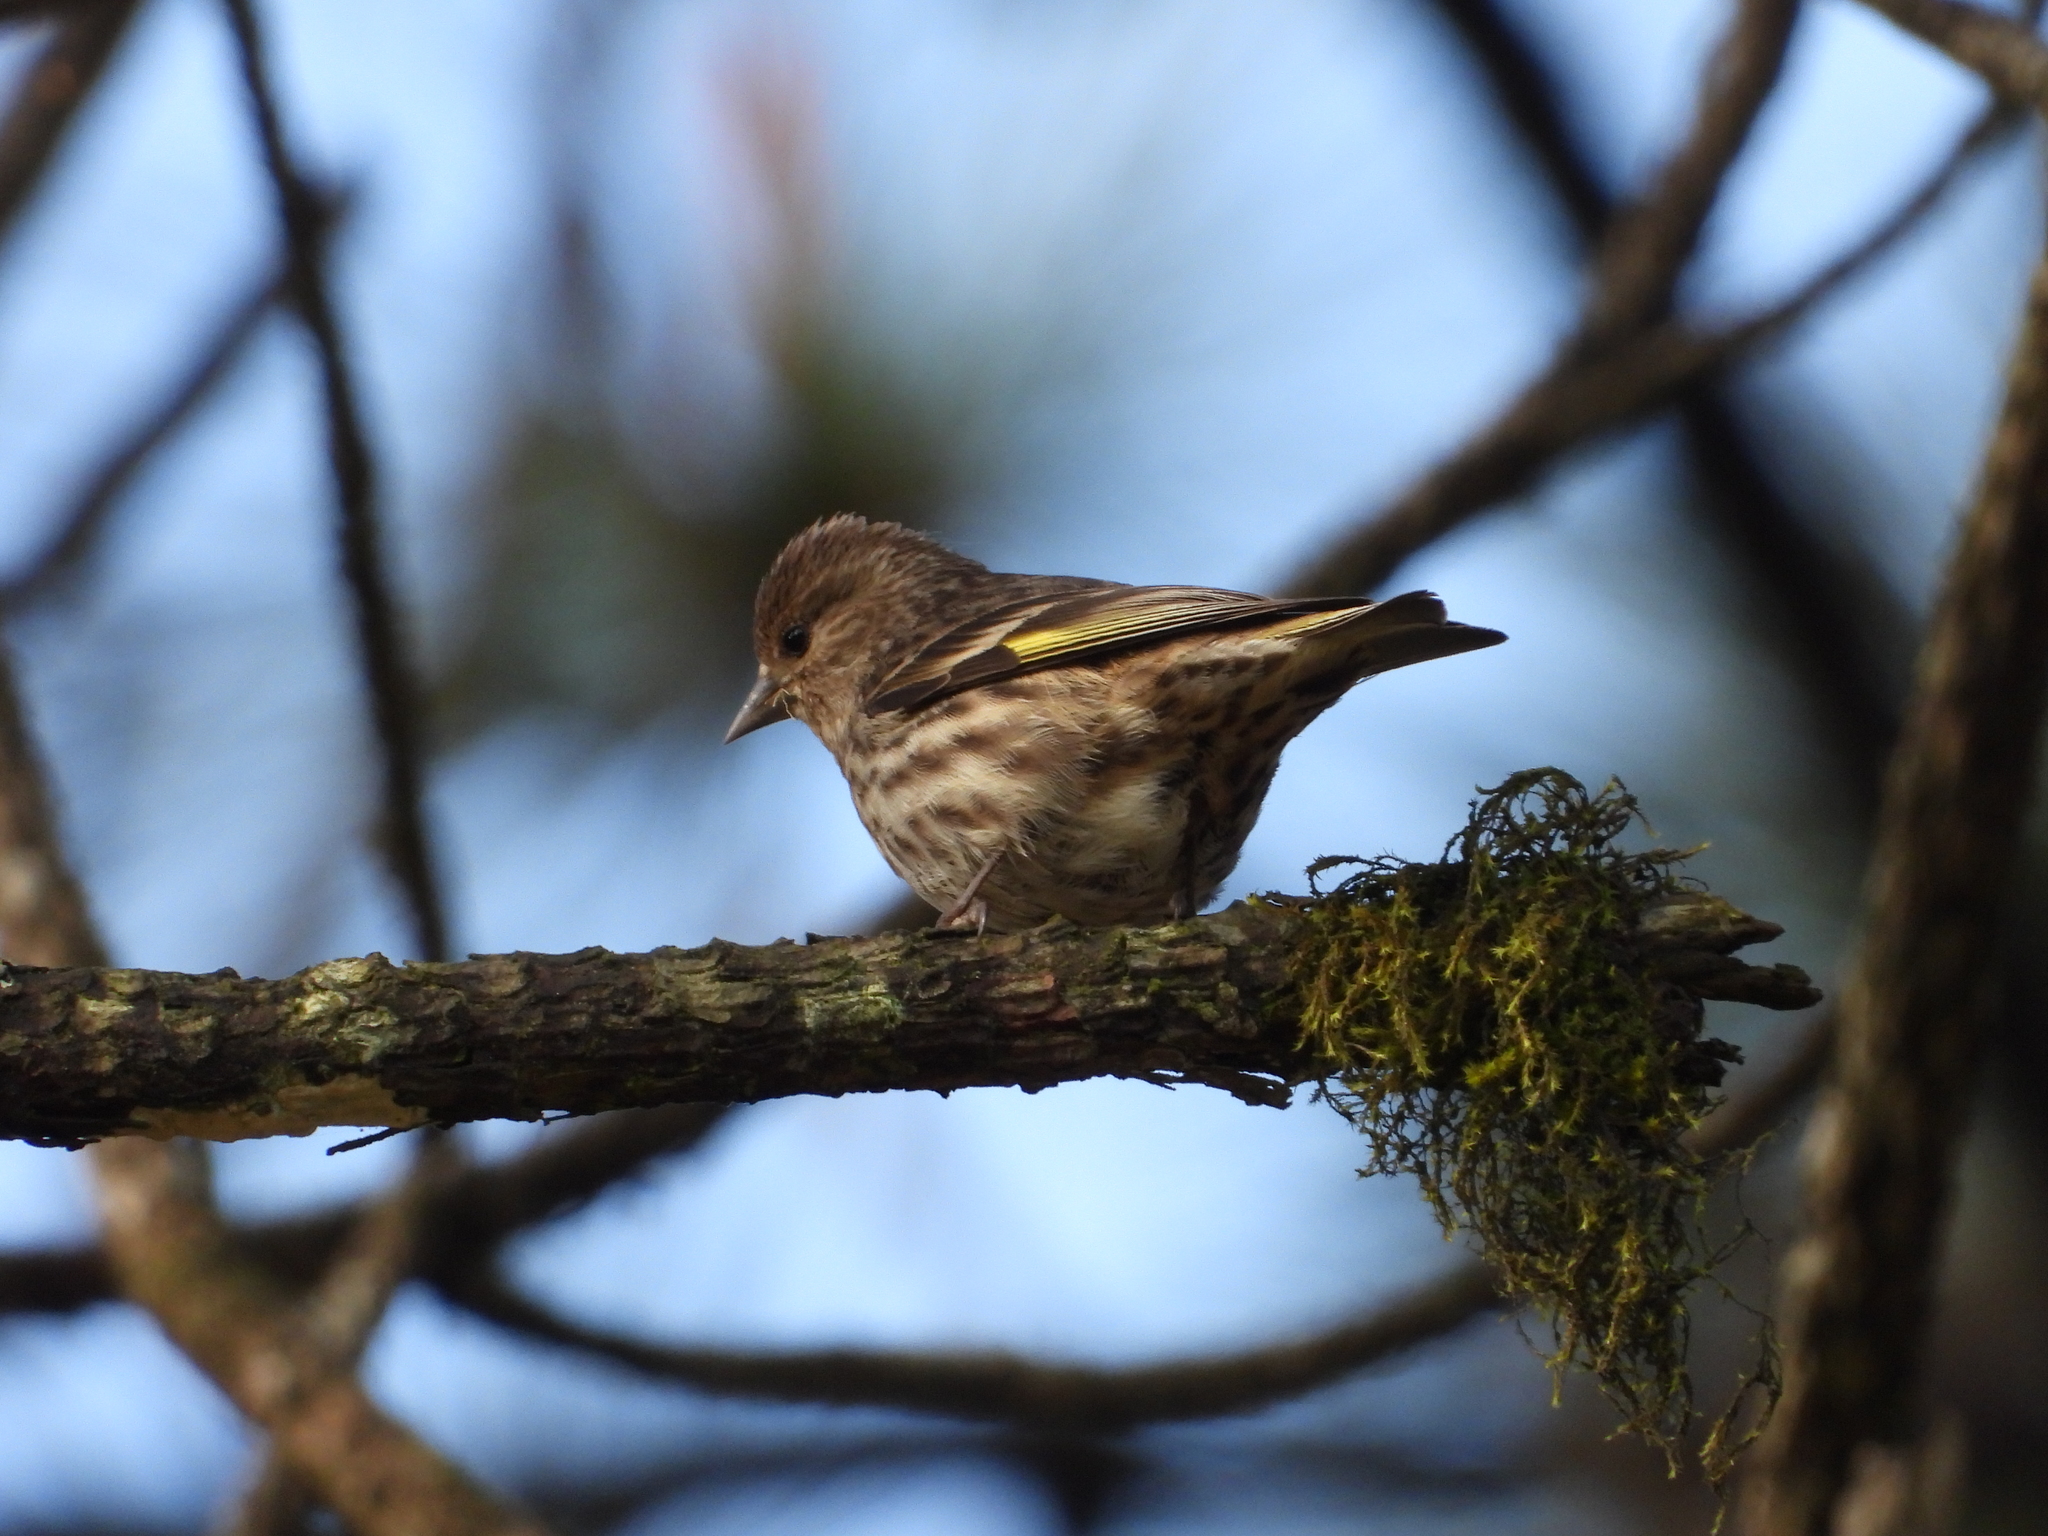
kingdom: Animalia
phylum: Chordata
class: Aves
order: Passeriformes
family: Fringillidae
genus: Spinus
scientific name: Spinus pinus
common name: Pine siskin
